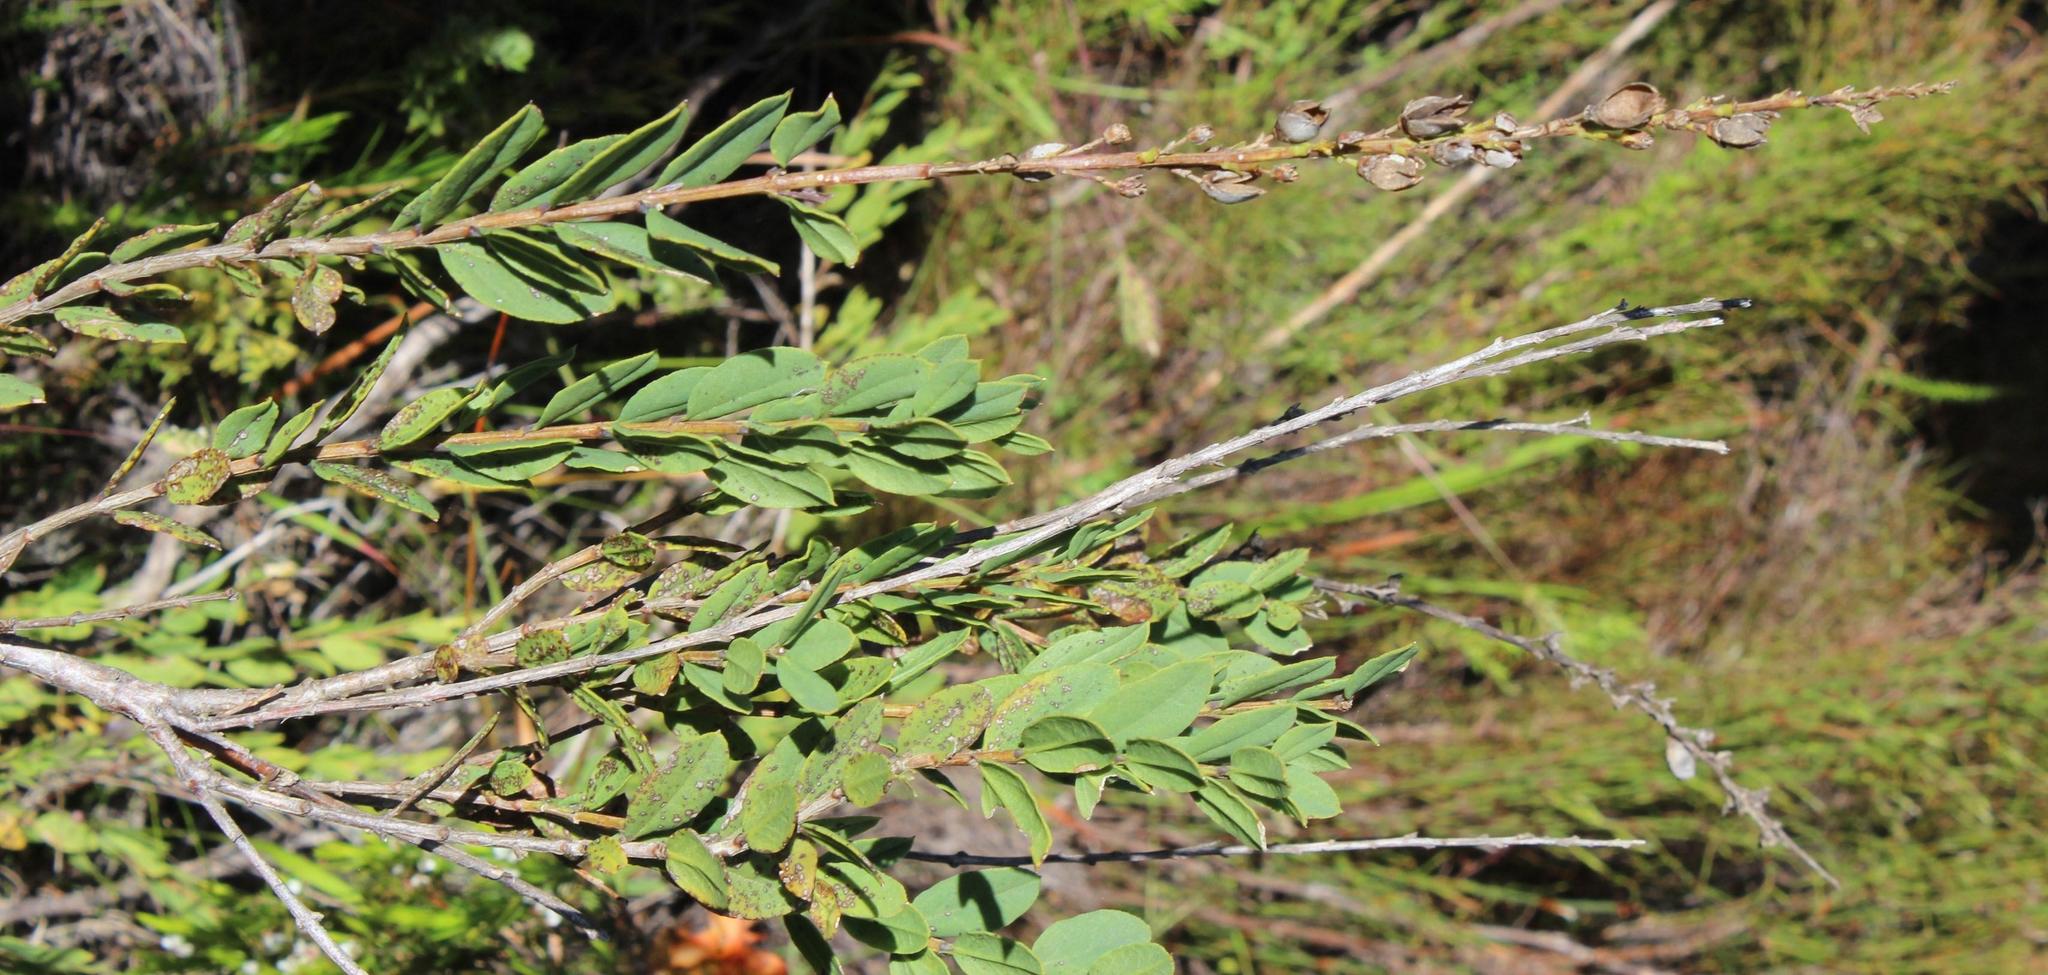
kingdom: Plantae
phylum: Tracheophyta
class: Magnoliopsida
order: Lamiales
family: Scrophulariaceae
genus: Freylinia
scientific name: Freylinia longiflora
